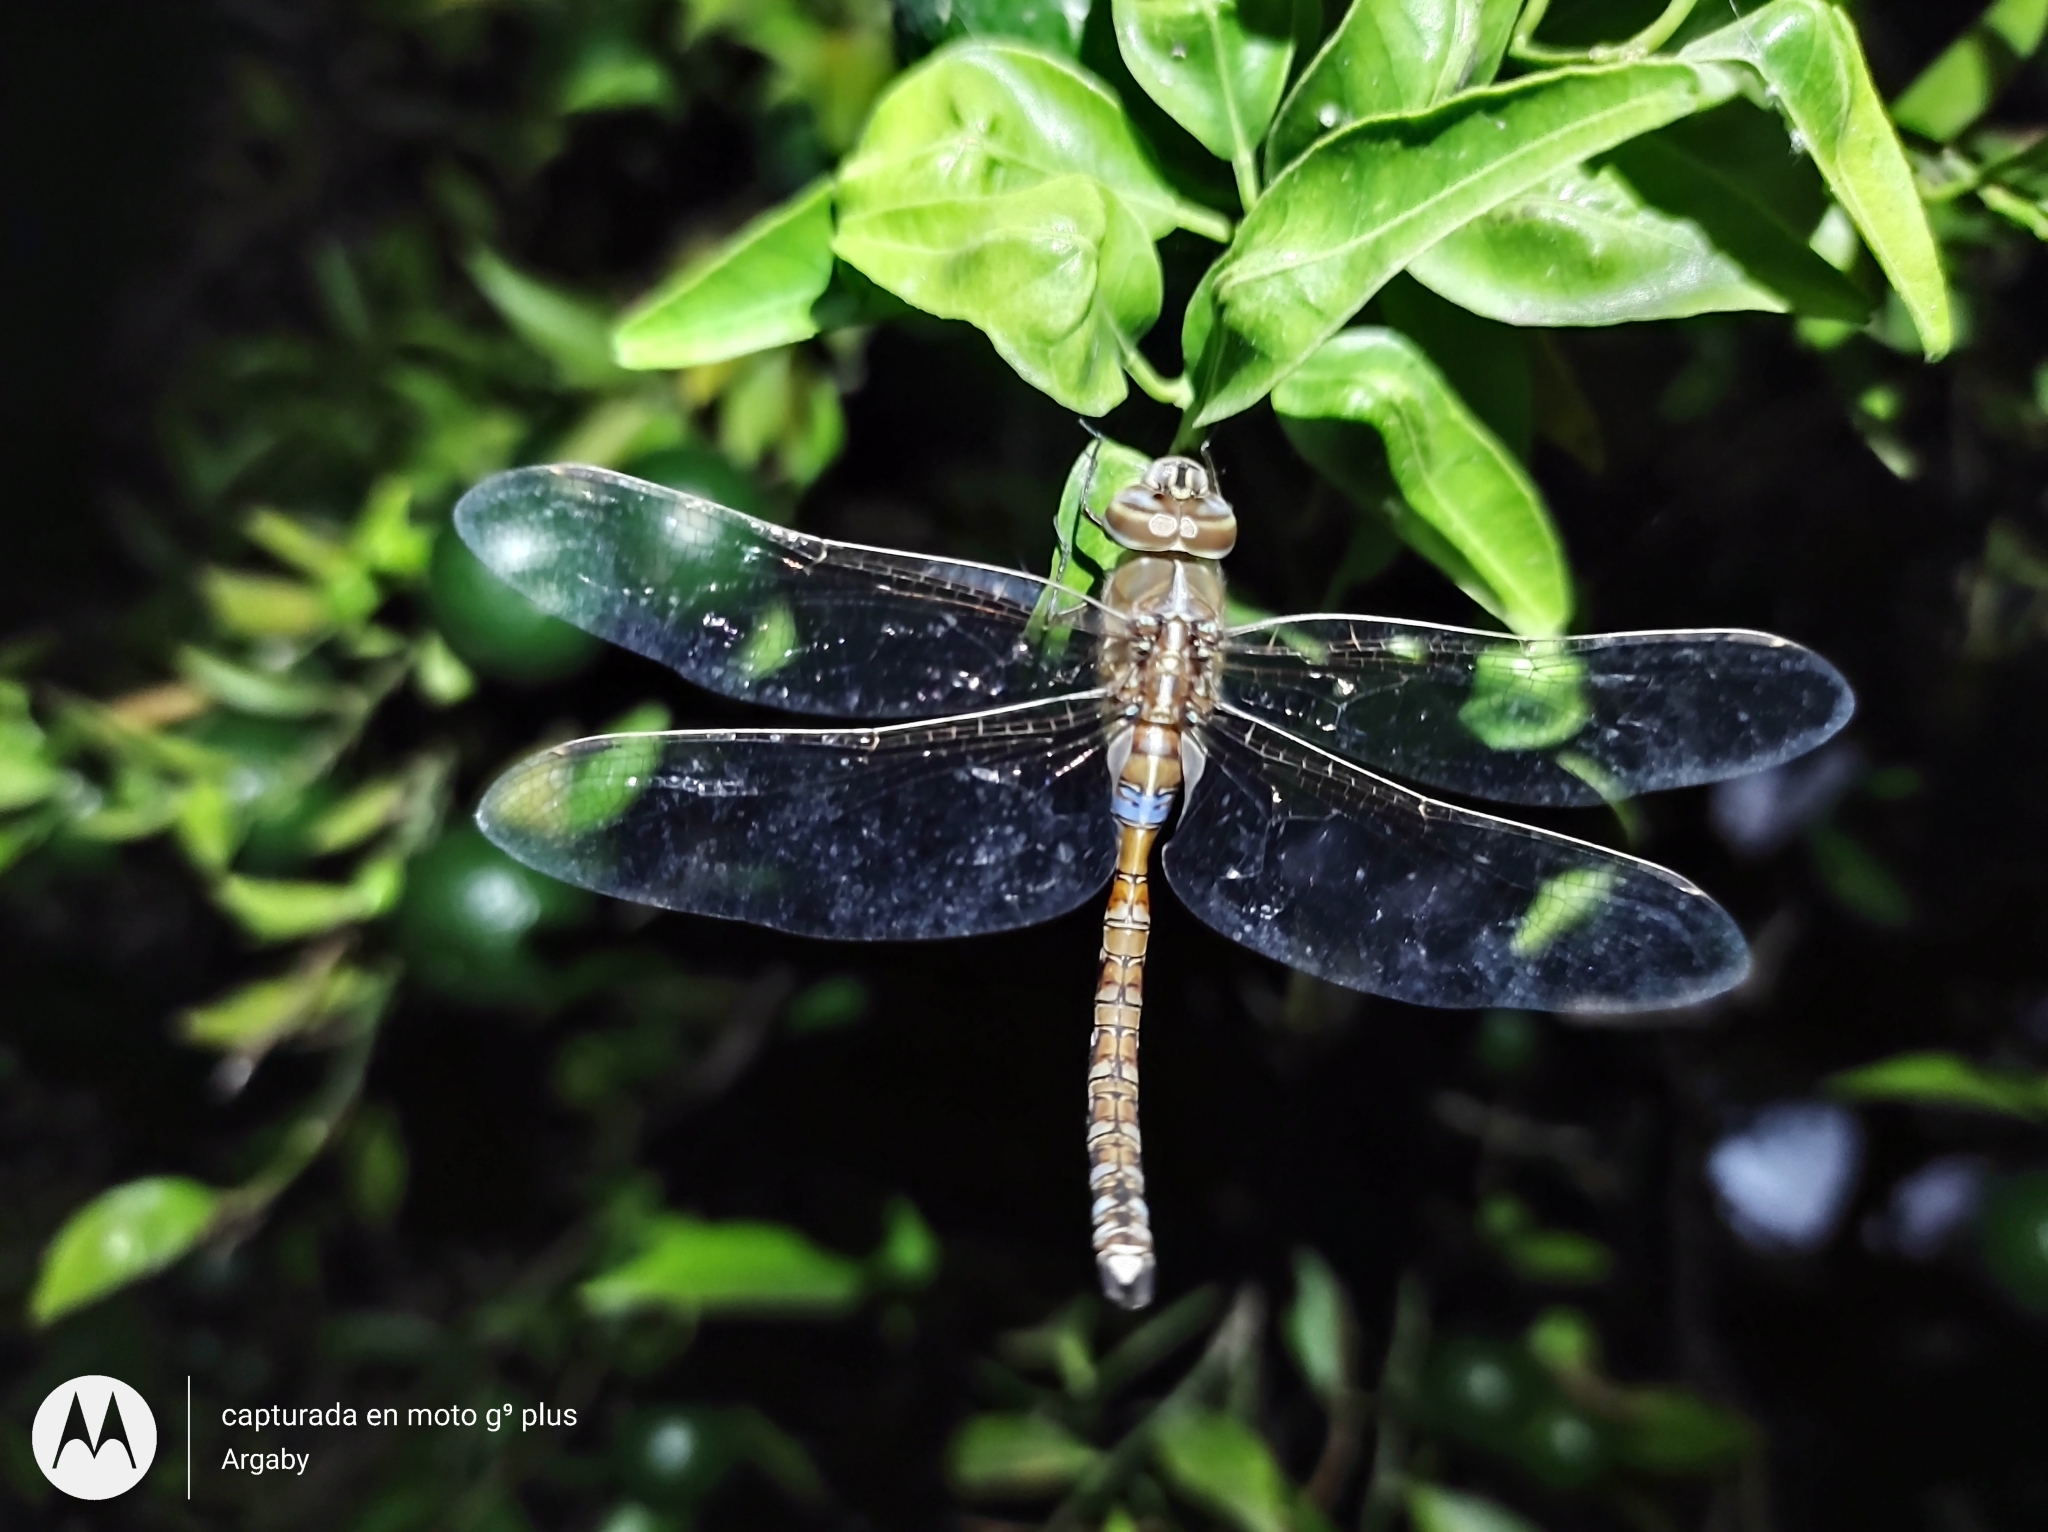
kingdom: Animalia
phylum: Arthropoda
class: Insecta
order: Odonata
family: Aeshnidae
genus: Rhionaeschna
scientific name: Rhionaeschna bonariensis
